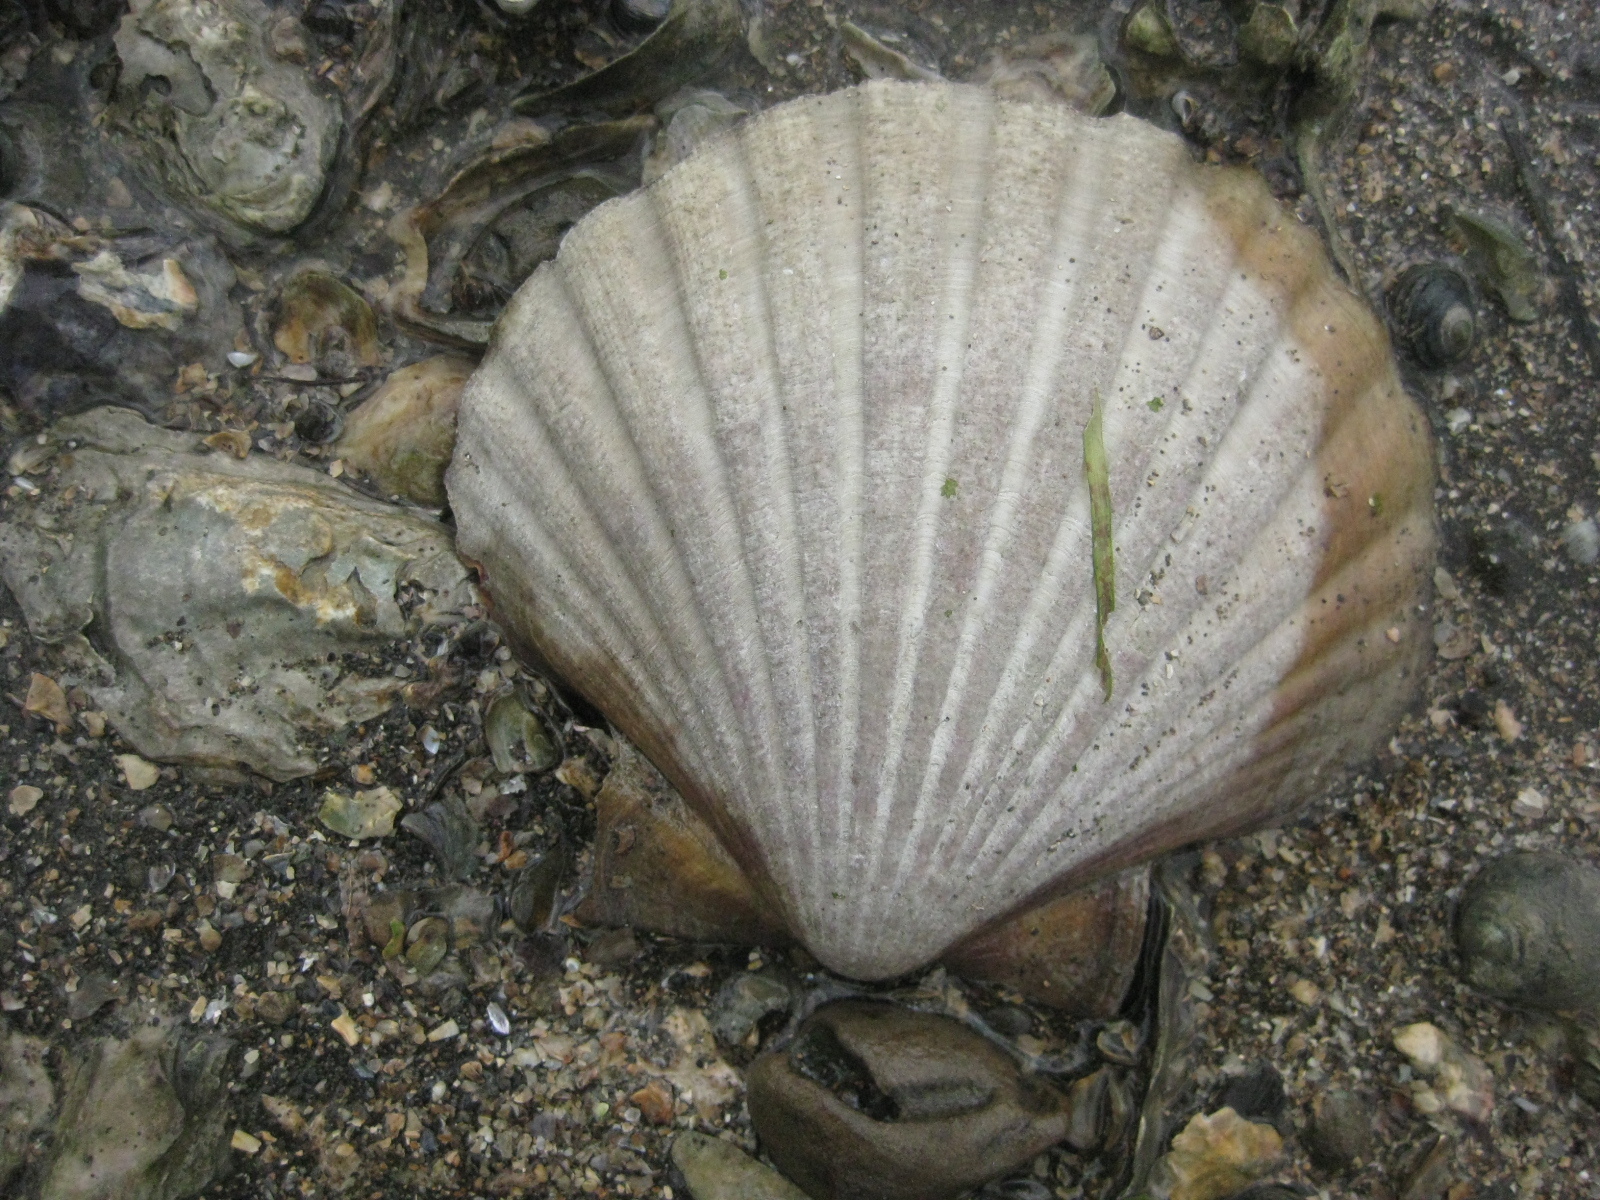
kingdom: Animalia
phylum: Mollusca
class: Bivalvia
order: Pectinida
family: Pectinidae
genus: Pecten
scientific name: Pecten novaezelandiae
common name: New zealand scallop
